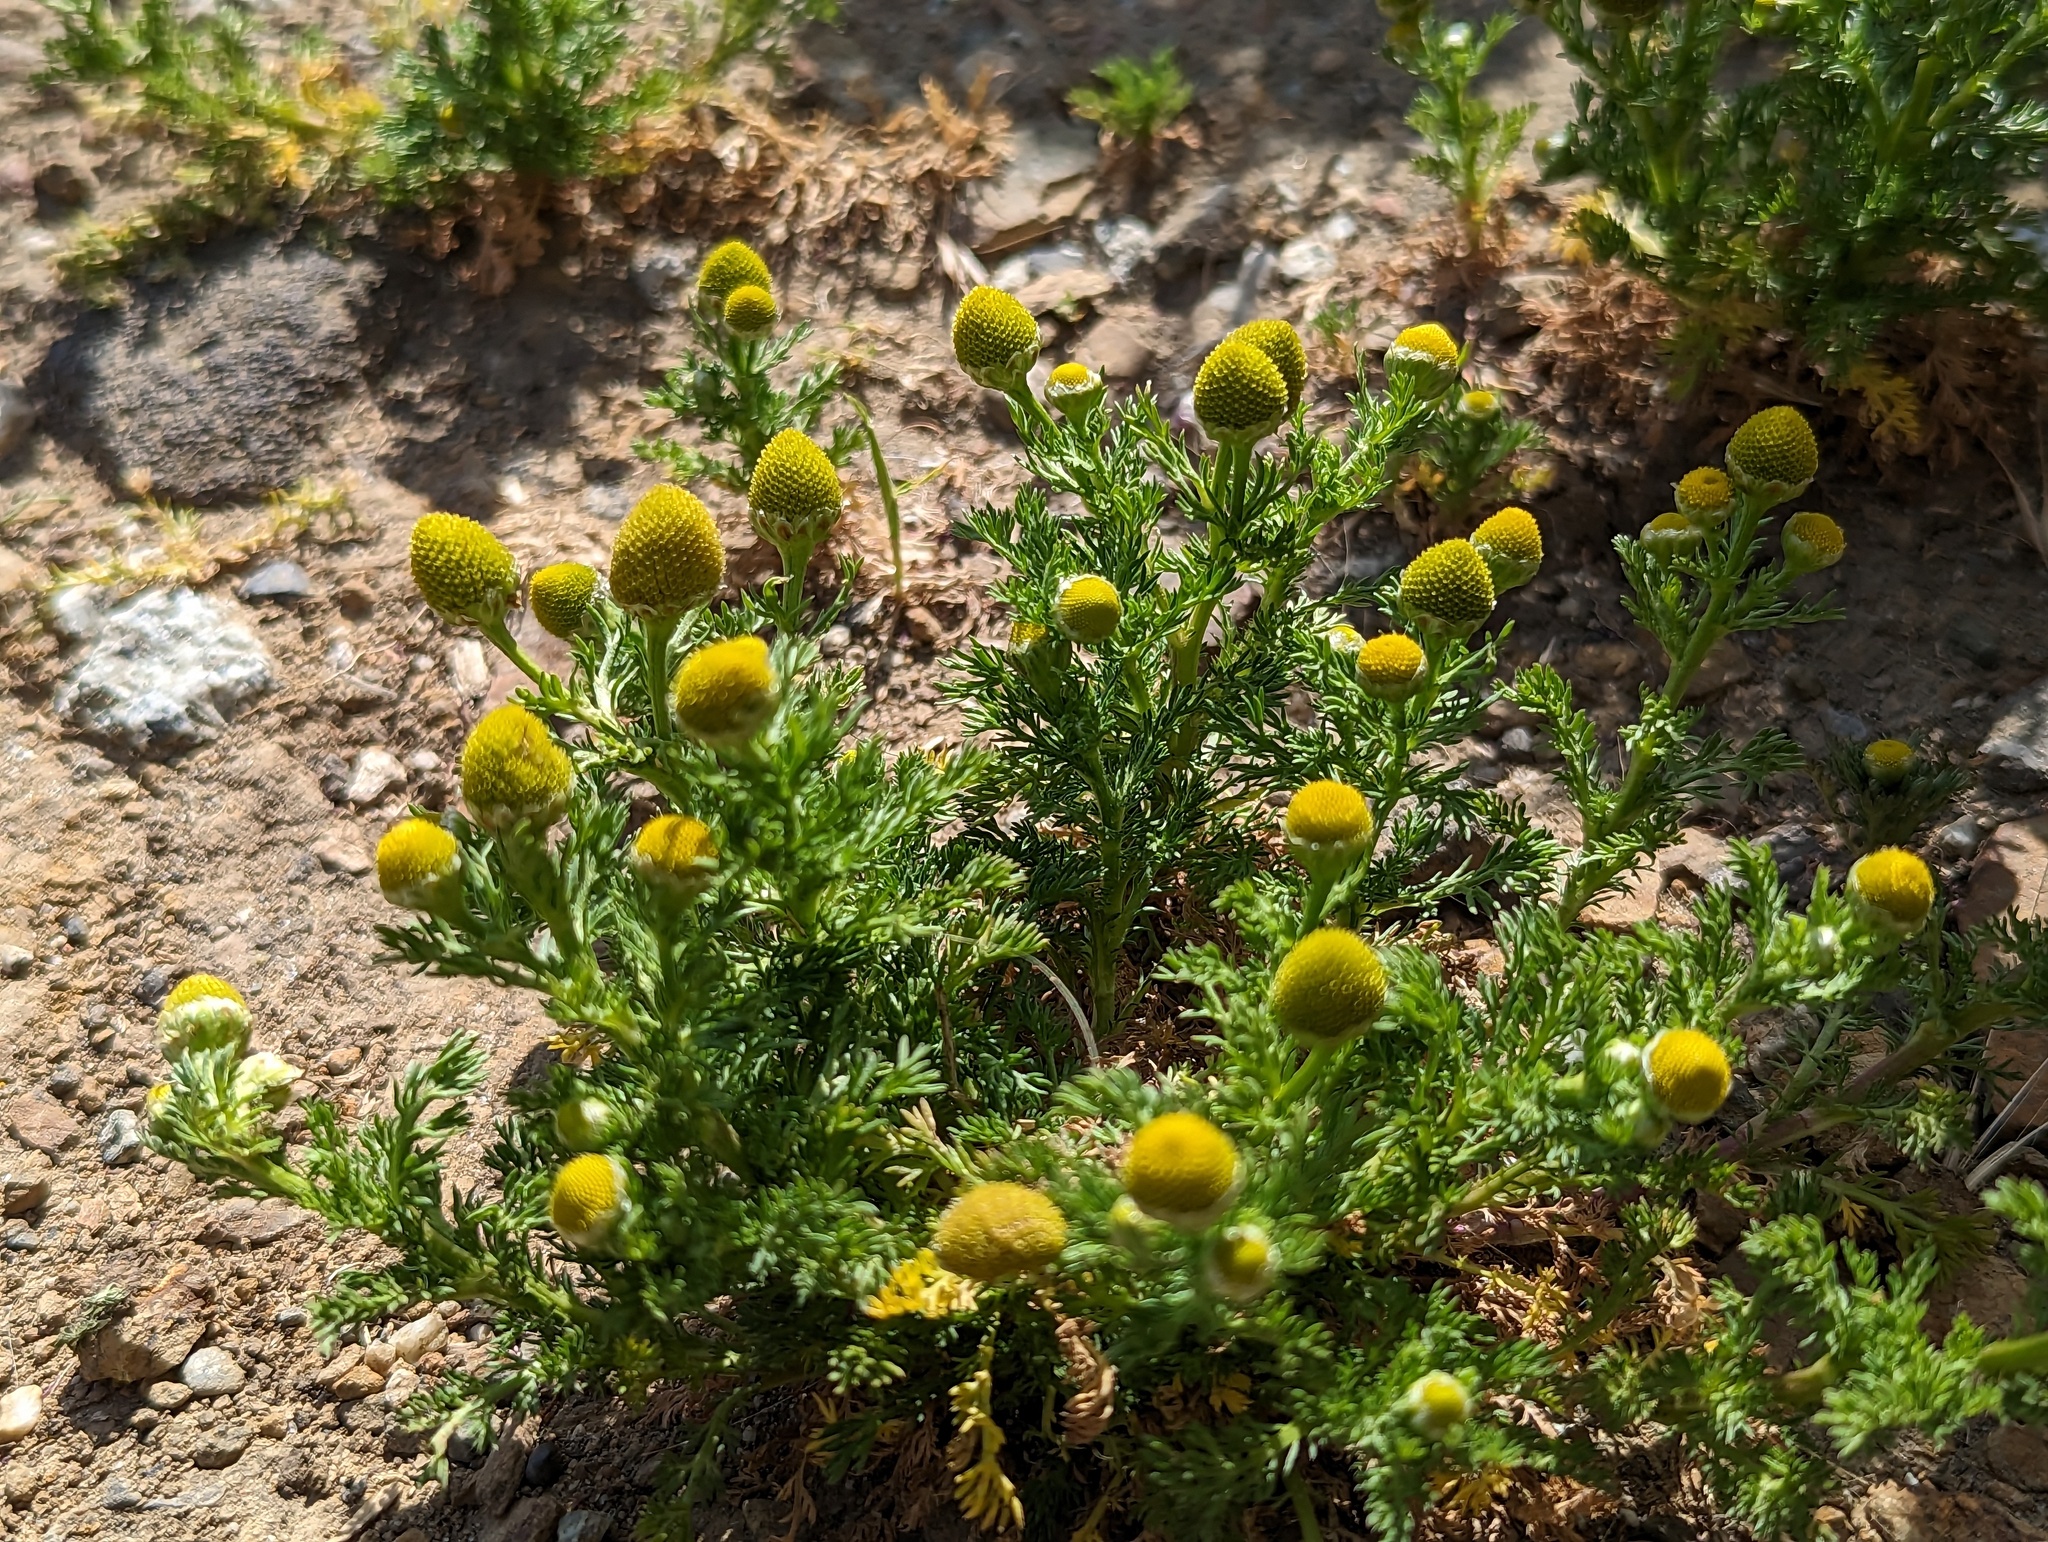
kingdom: Plantae
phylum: Tracheophyta
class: Magnoliopsida
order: Asterales
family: Asteraceae
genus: Matricaria
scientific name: Matricaria discoidea
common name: Disc mayweed
